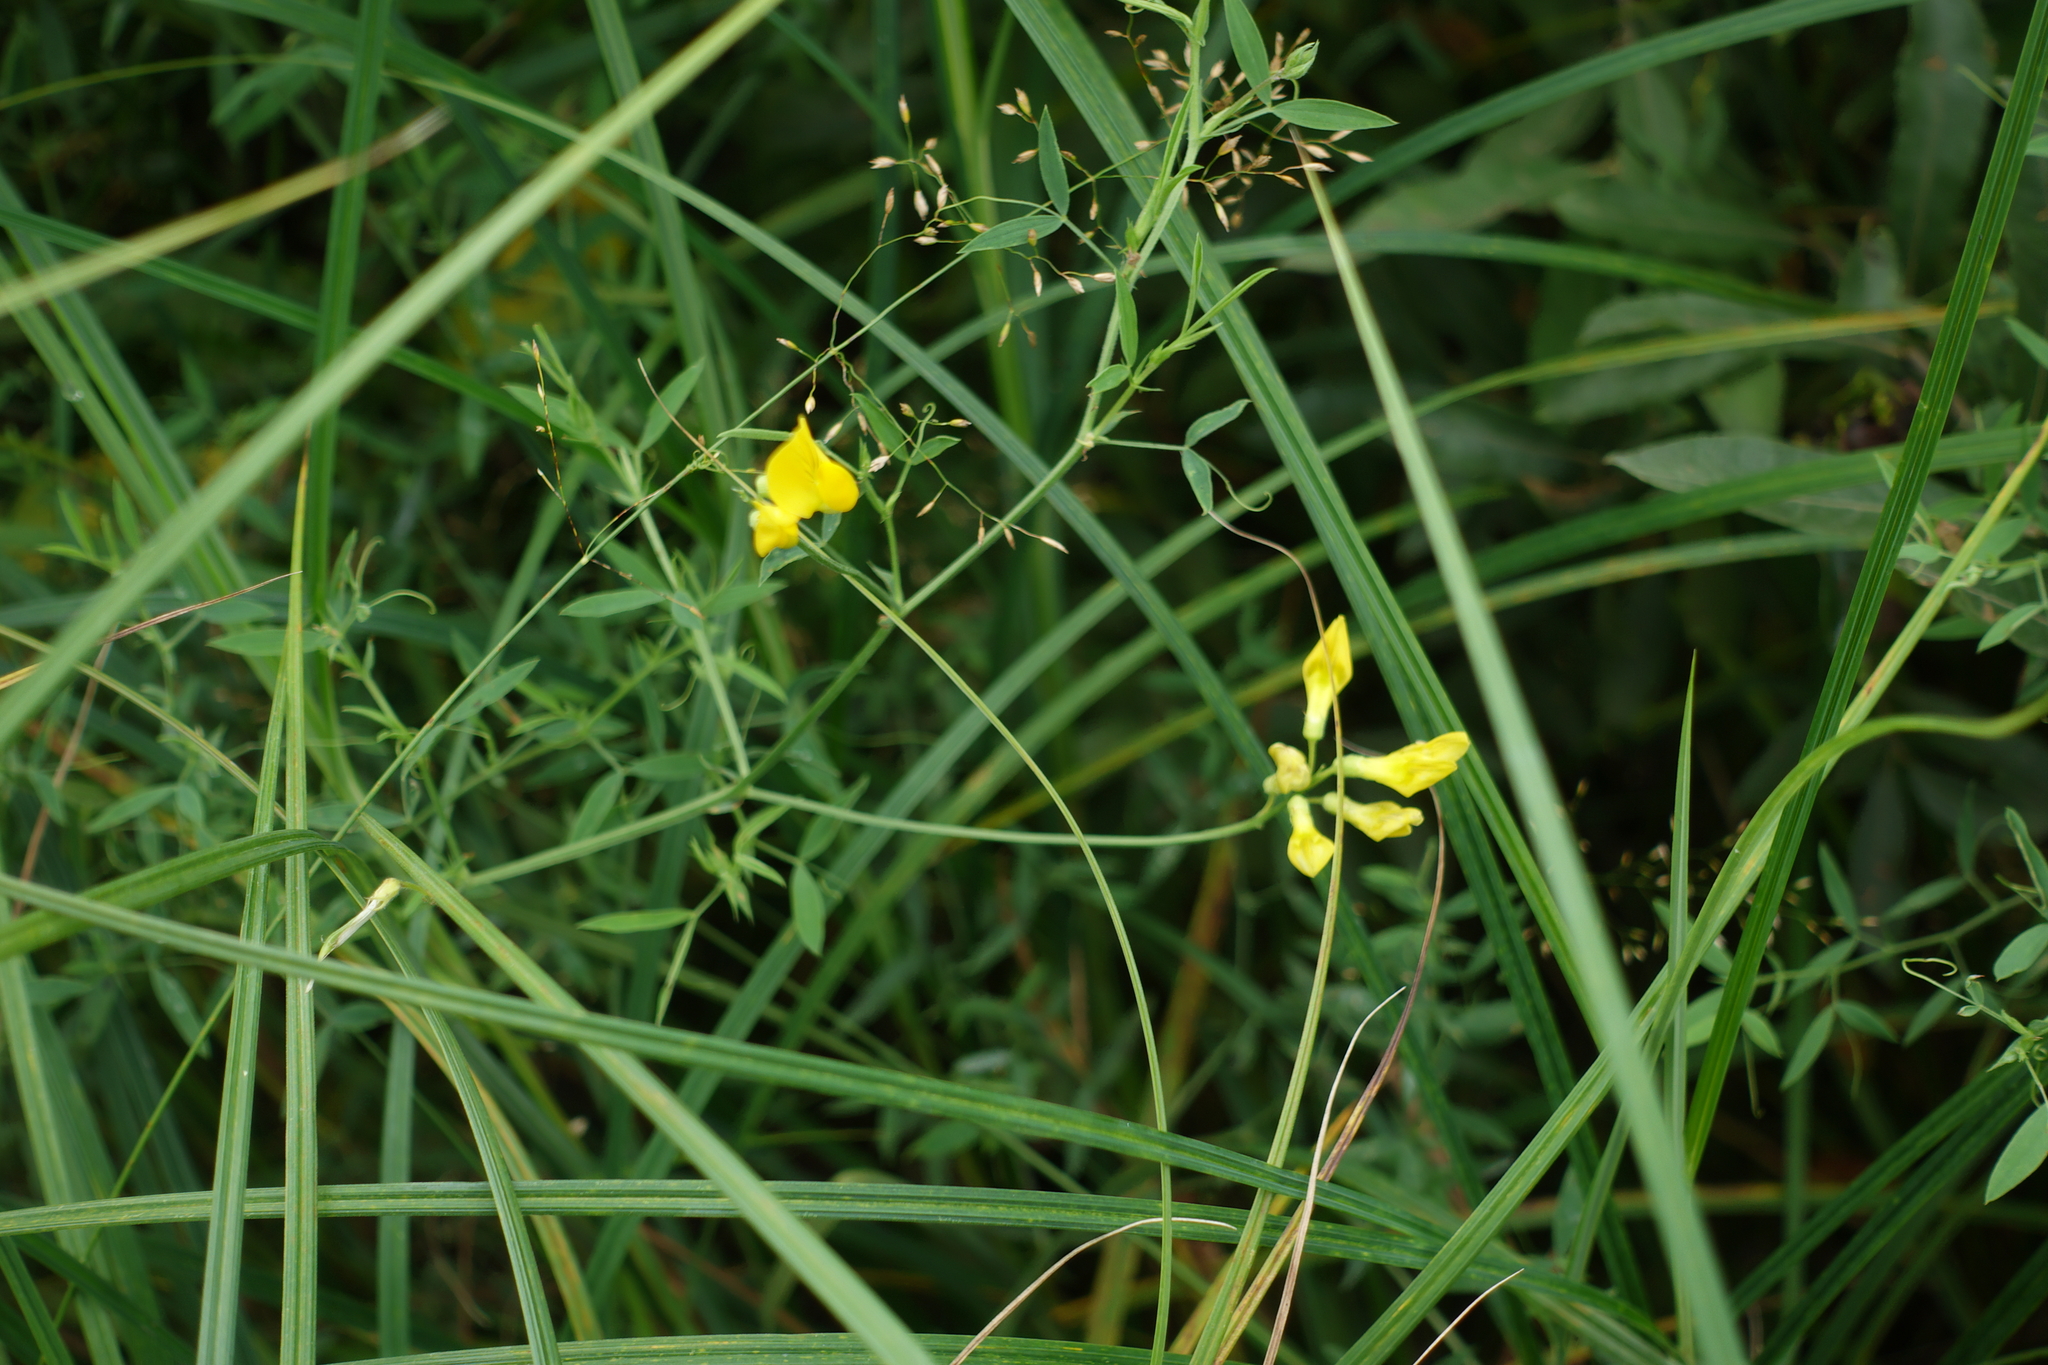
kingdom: Plantae
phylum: Tracheophyta
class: Magnoliopsida
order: Fabales
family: Fabaceae
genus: Lathyrus
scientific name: Lathyrus pratensis
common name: Meadow vetchling
